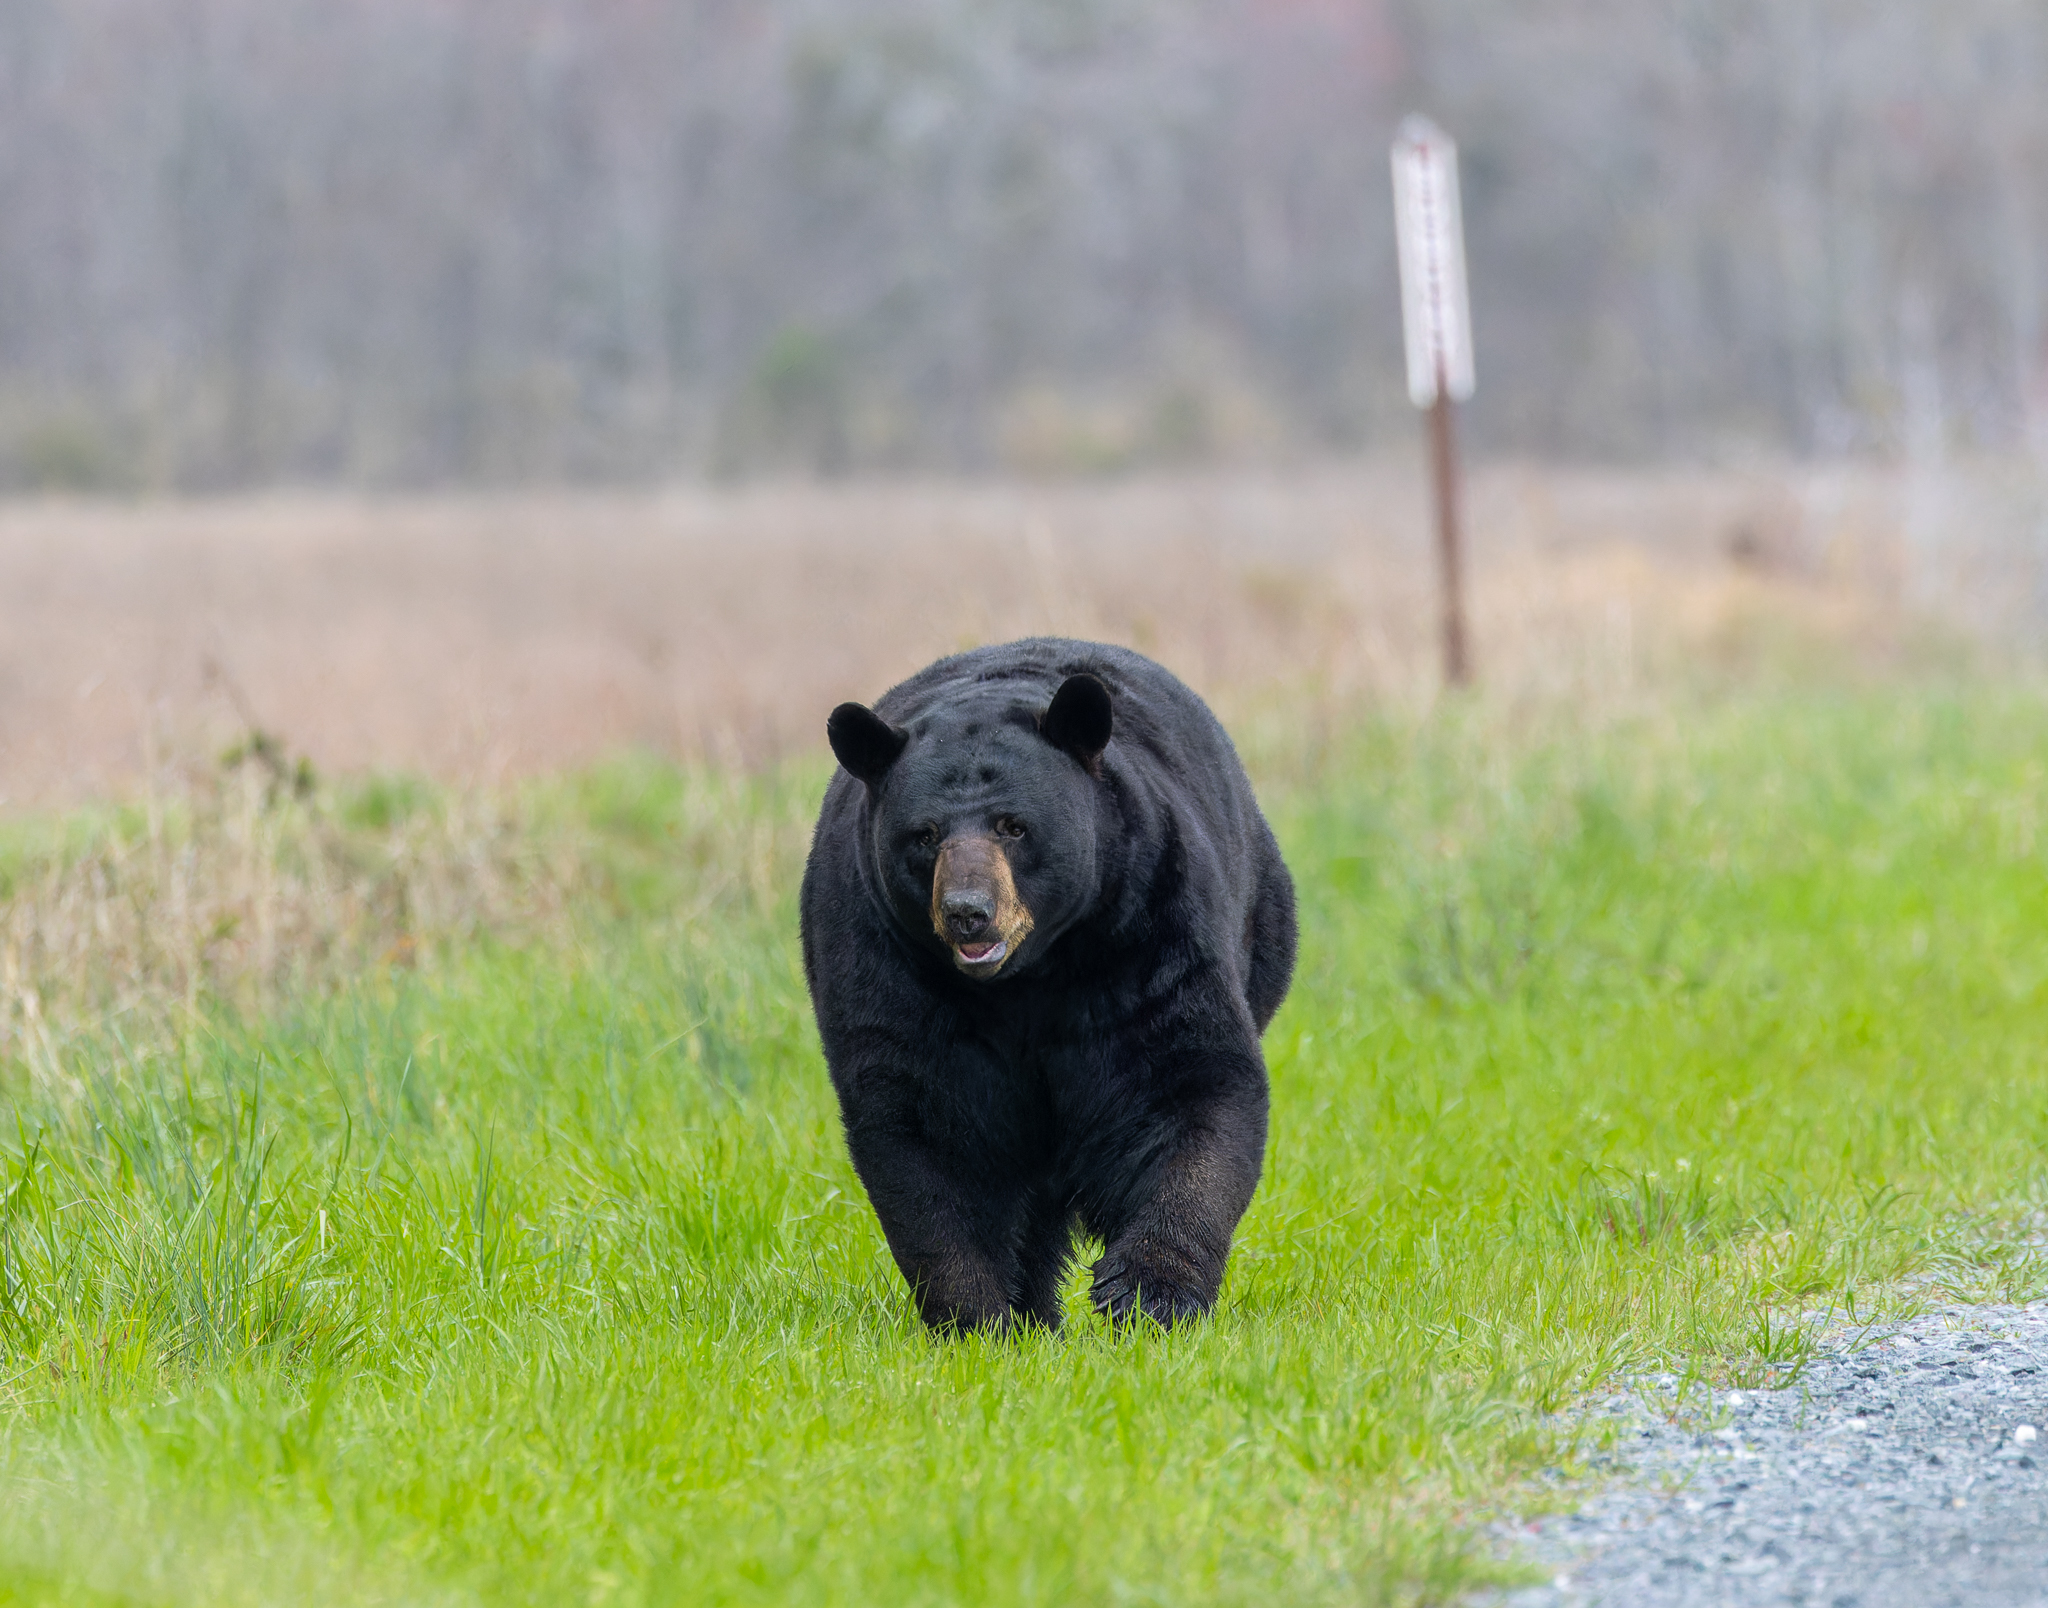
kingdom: Animalia
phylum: Chordata
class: Mammalia
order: Carnivora
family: Ursidae
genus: Ursus
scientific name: Ursus americanus
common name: American black bear
